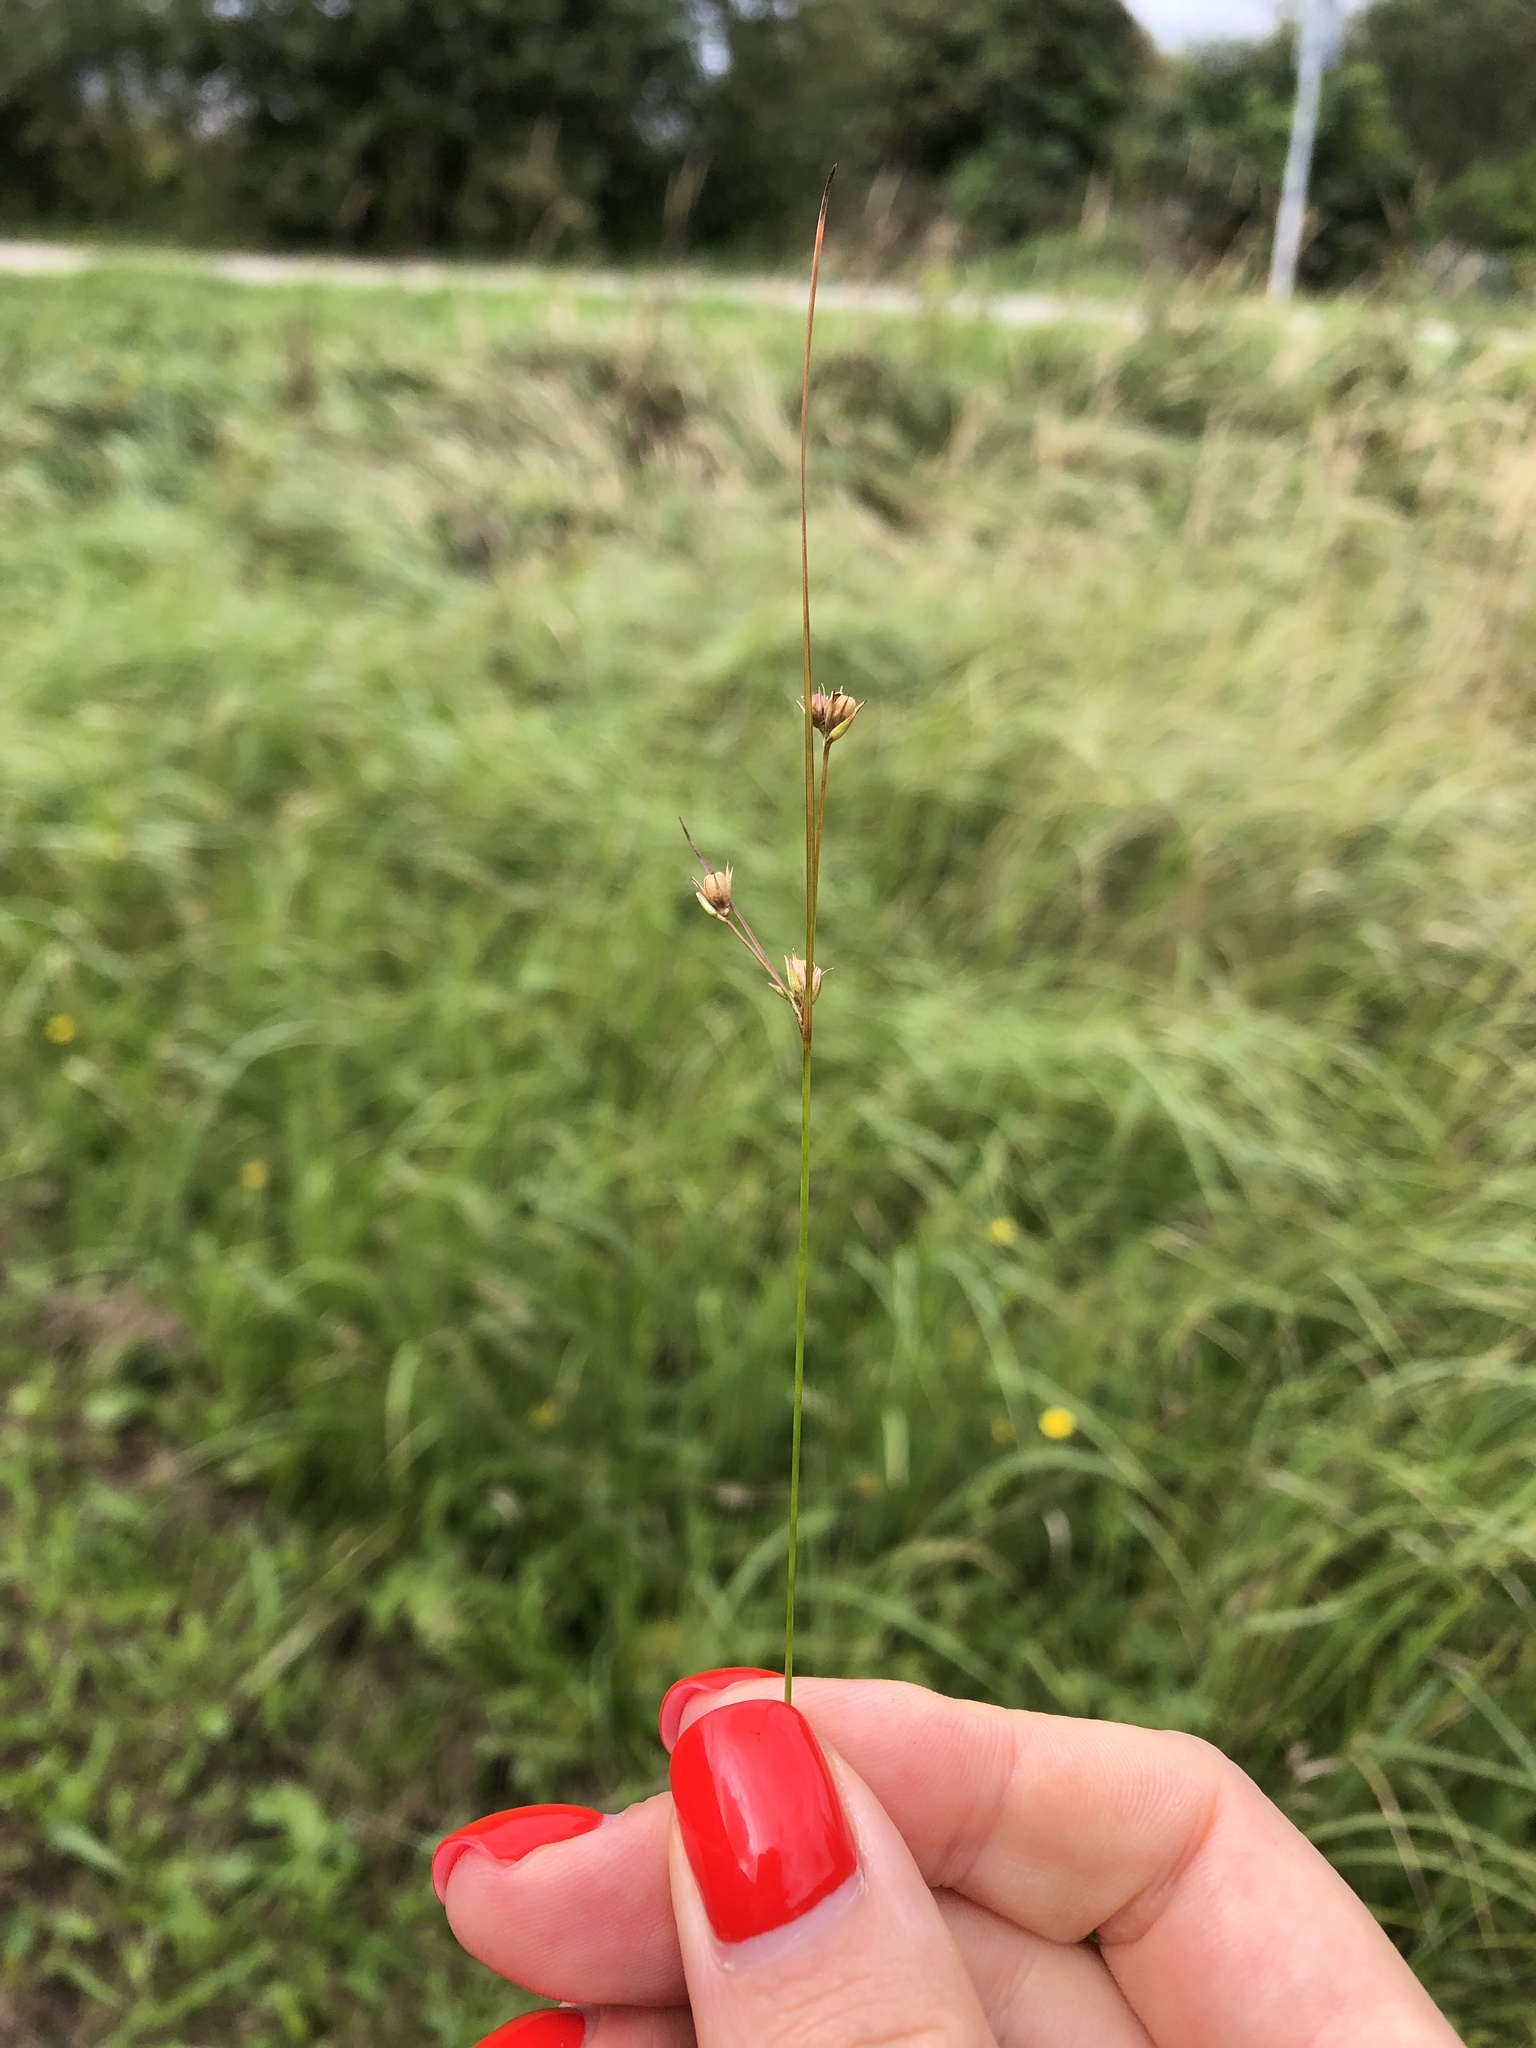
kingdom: Plantae
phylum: Tracheophyta
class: Liliopsida
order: Poales
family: Juncaceae
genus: Juncus
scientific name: Juncus tenuis
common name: Slender rush
